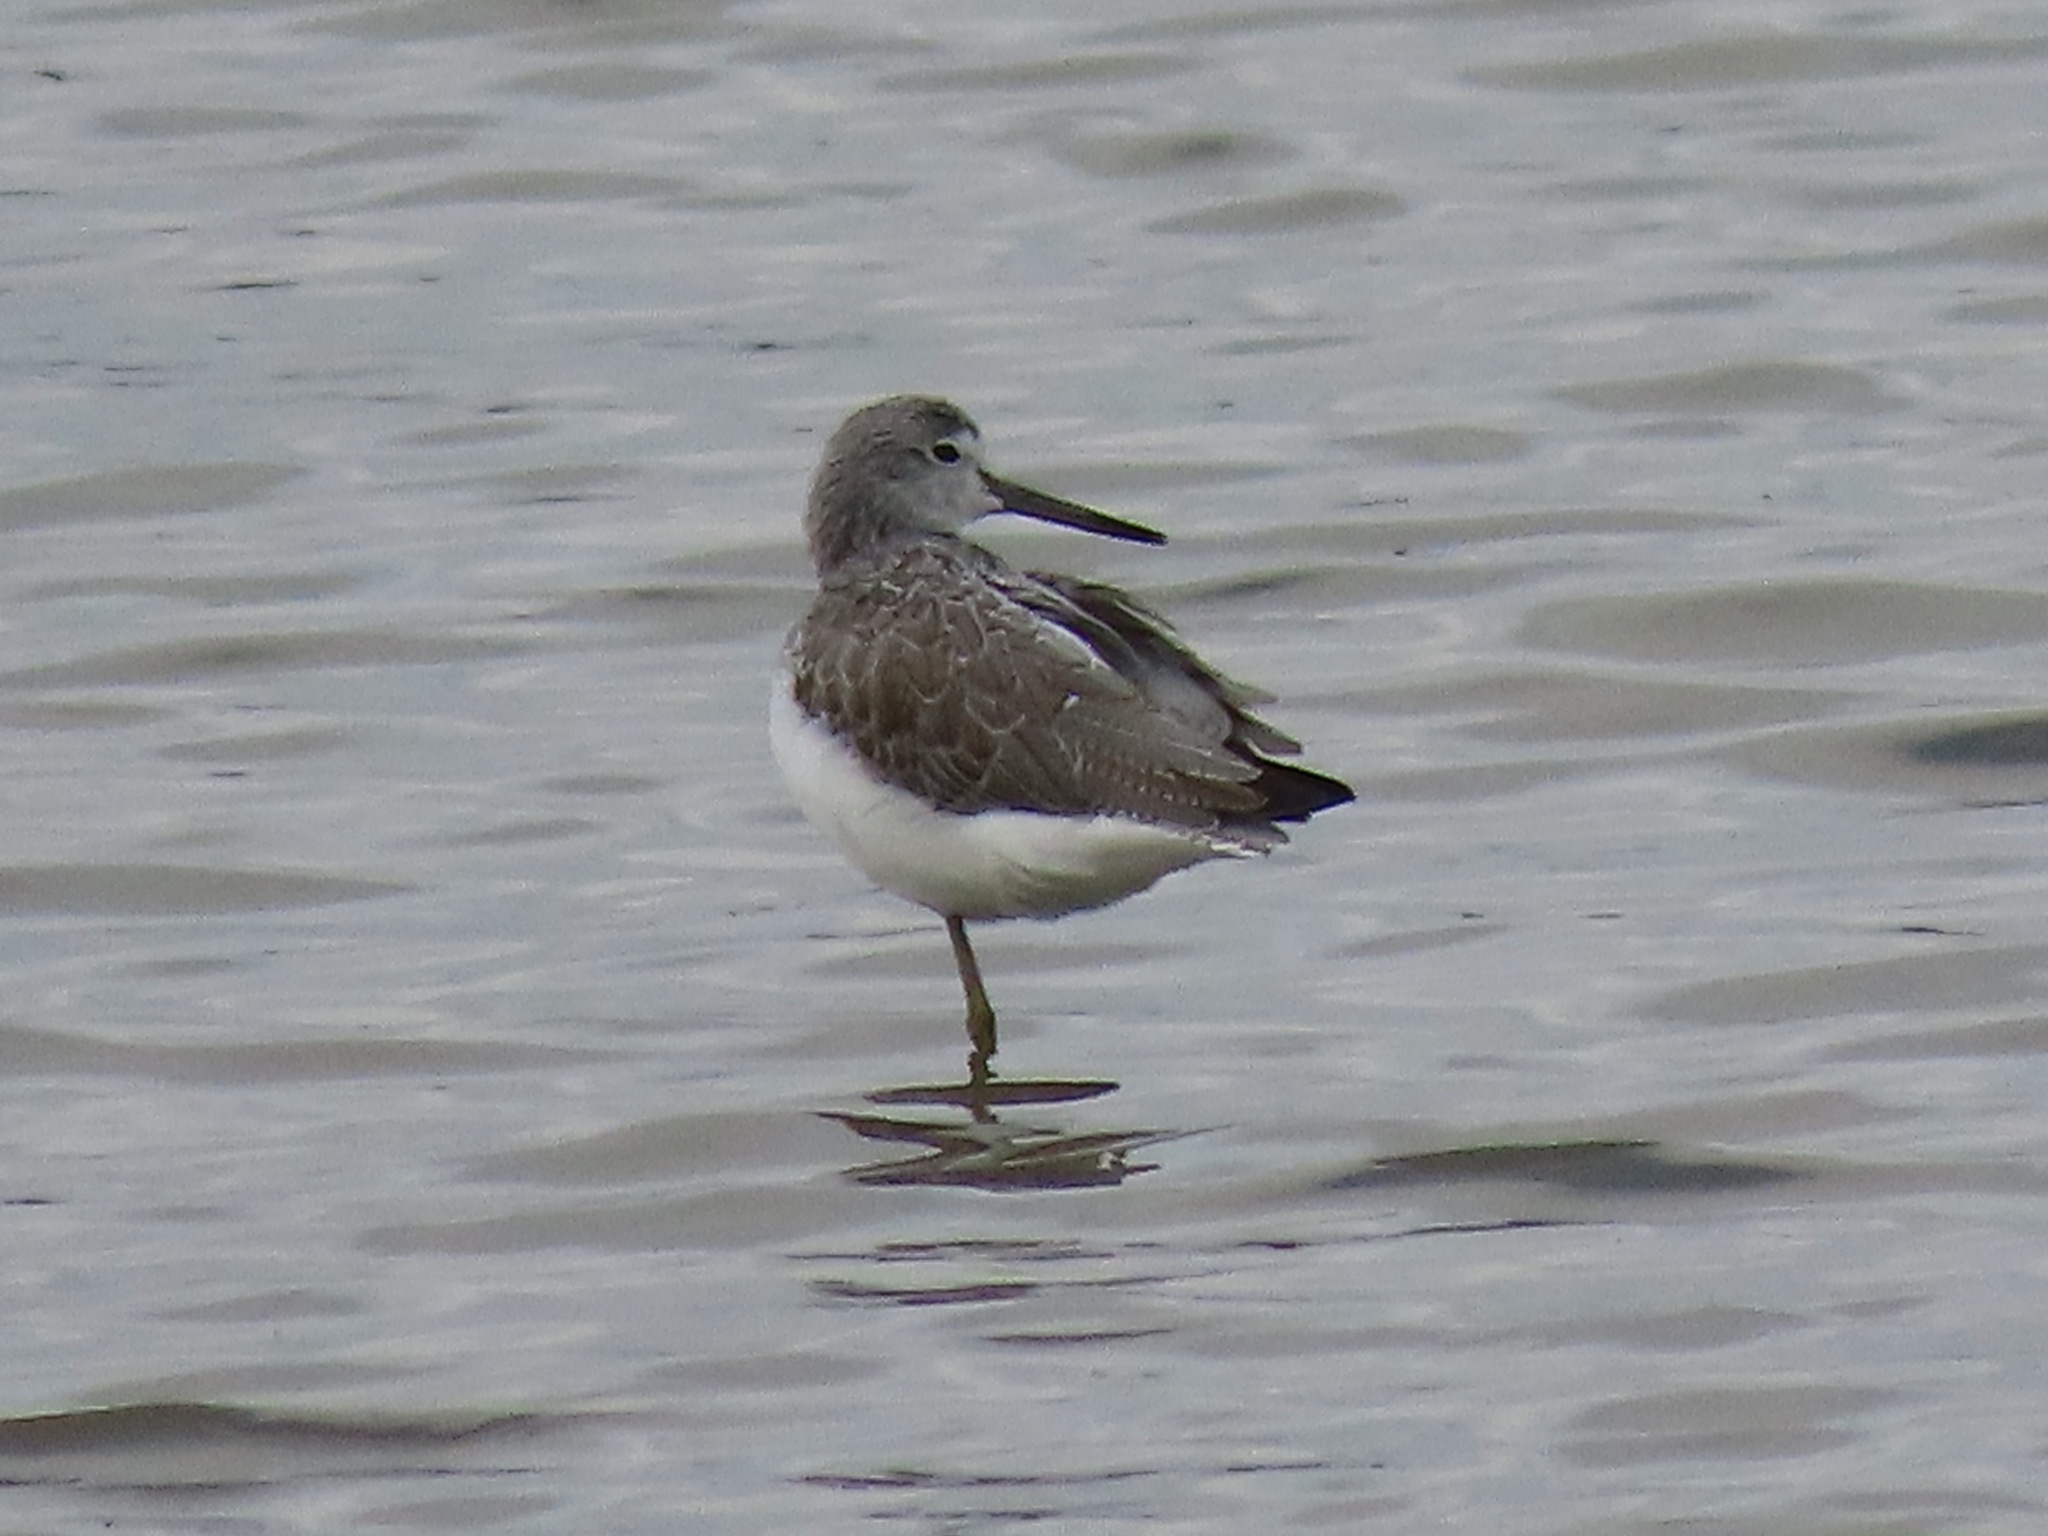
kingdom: Animalia
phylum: Chordata
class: Aves
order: Charadriiformes
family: Scolopacidae
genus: Tringa
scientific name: Tringa nebularia
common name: Common greenshank
